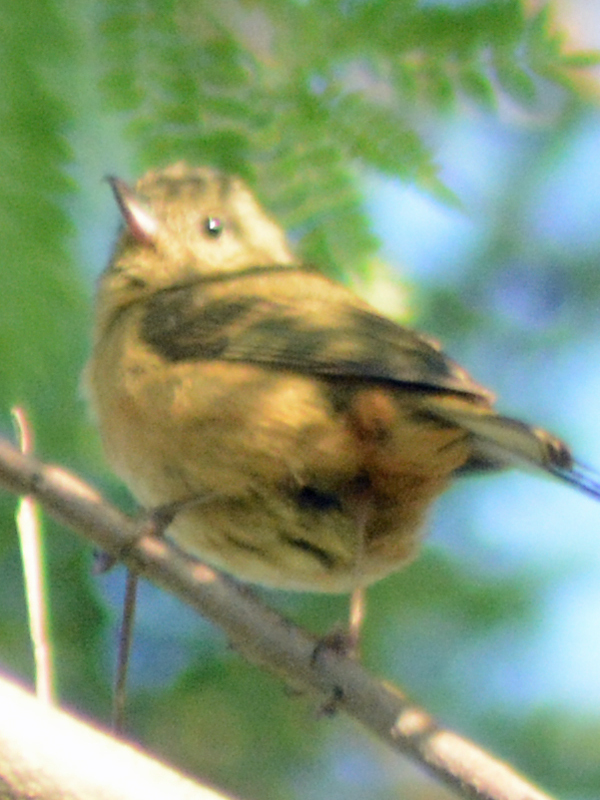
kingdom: Animalia
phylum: Chordata
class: Aves
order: Passeriformes
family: Thraupidae
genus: Diglossa
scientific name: Diglossa baritula
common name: Cinnamon-bellied flowerpiercer
